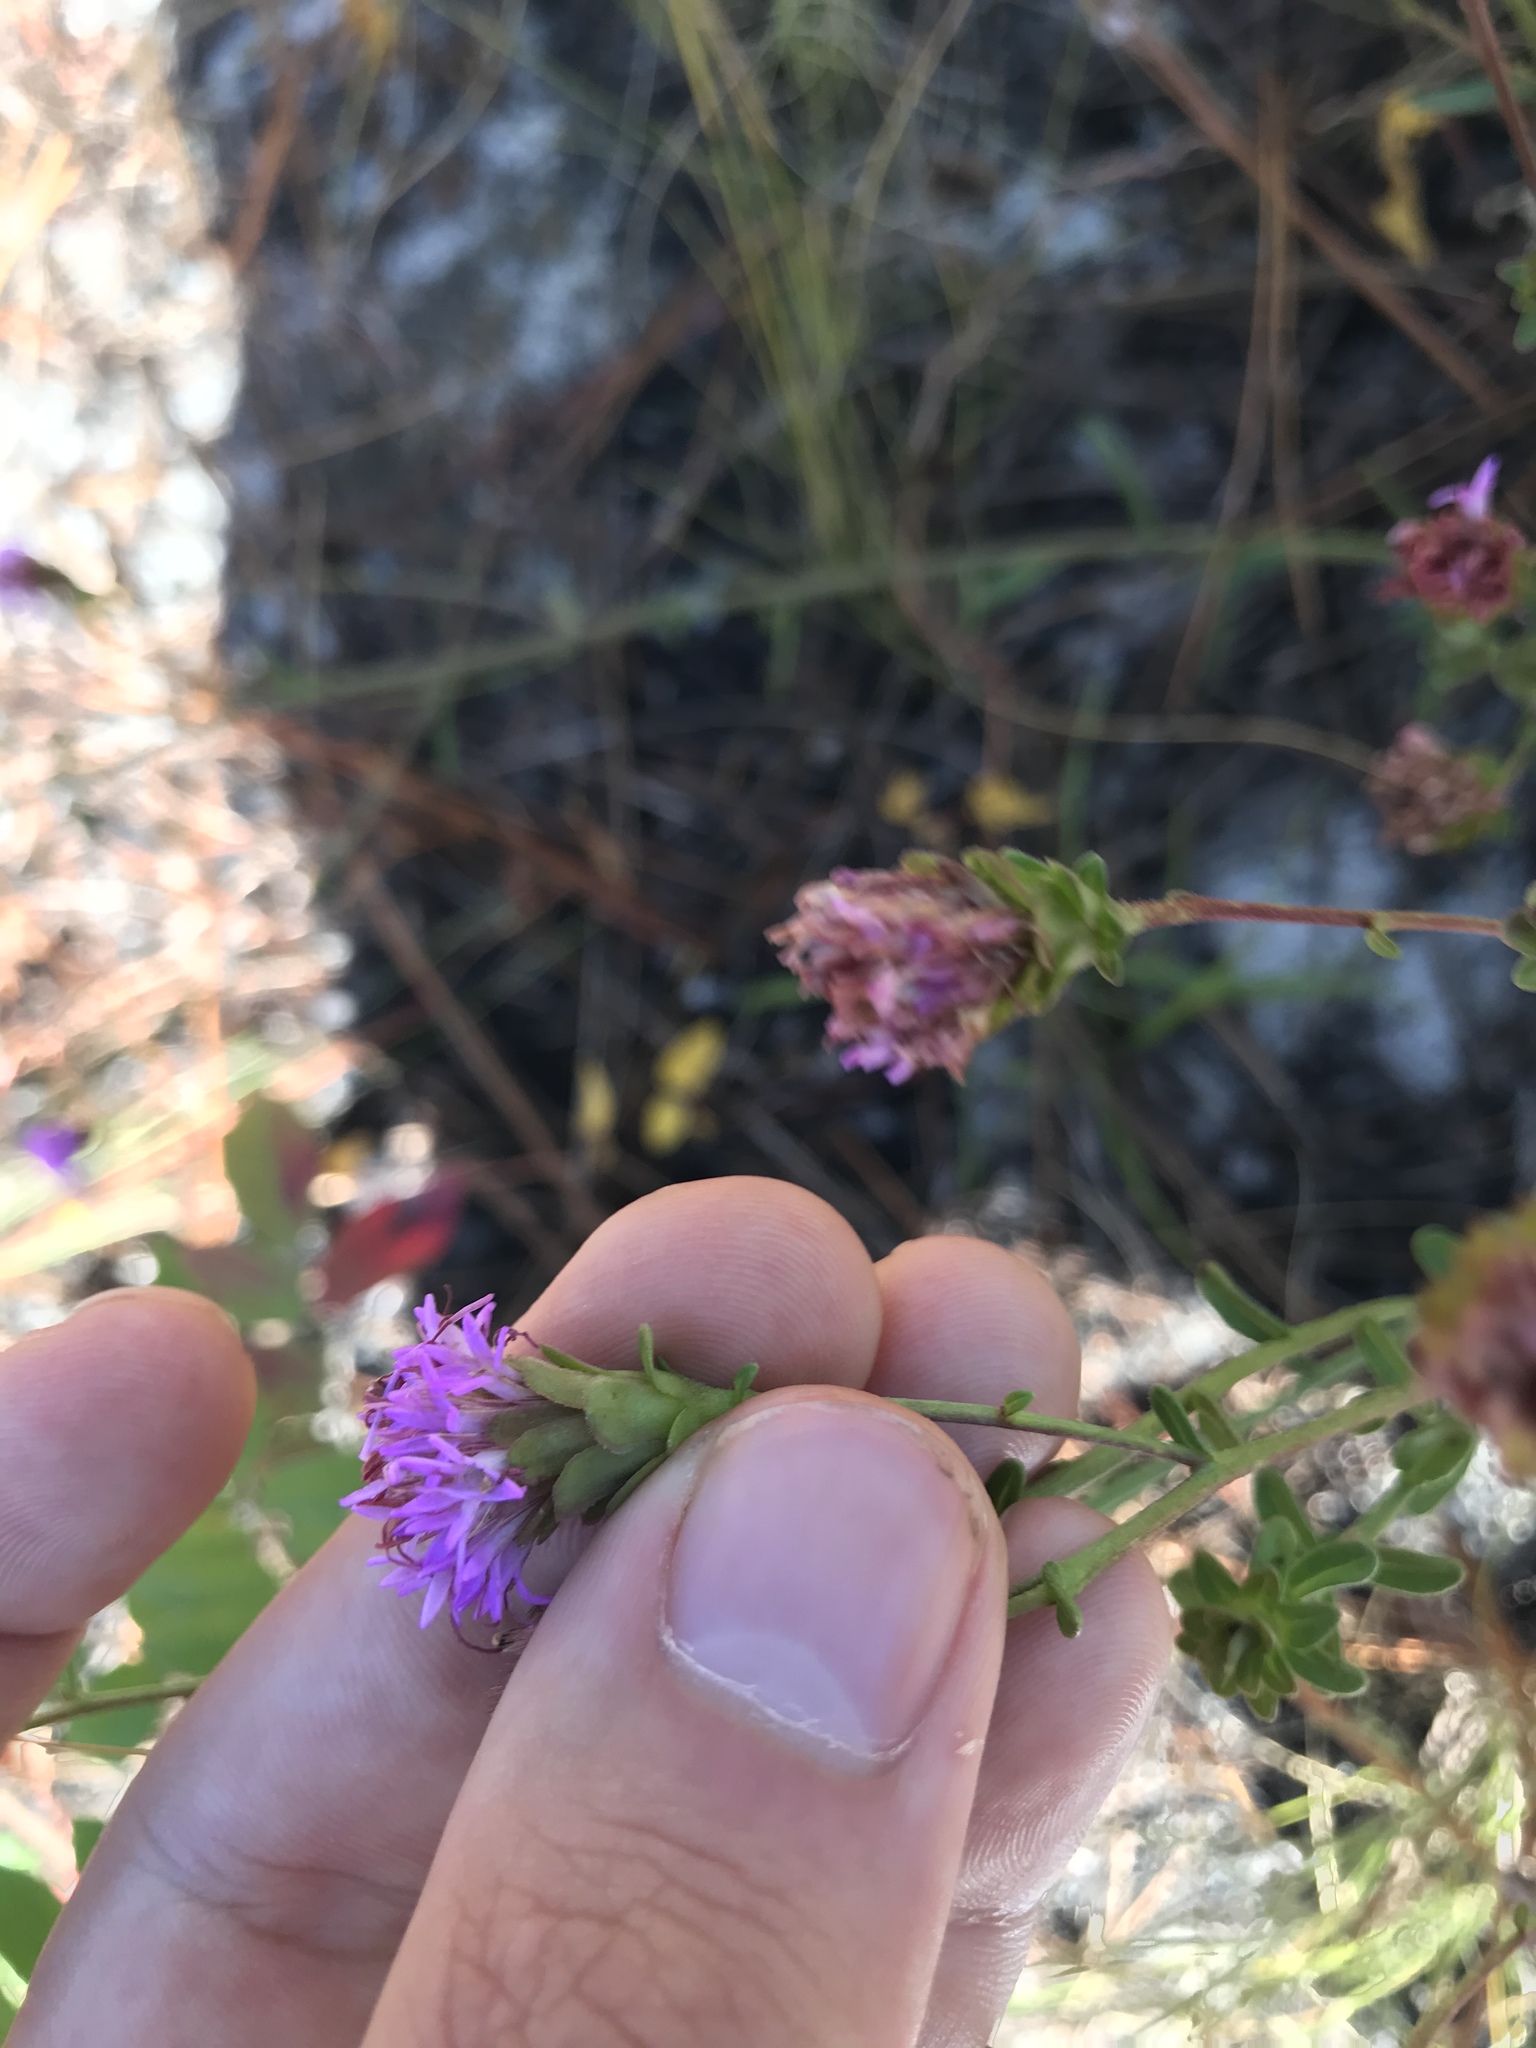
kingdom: Plantae
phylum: Tracheophyta
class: Magnoliopsida
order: Asterales
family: Asteraceae
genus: Carphephorus
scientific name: Carphephorus bellidifolius
